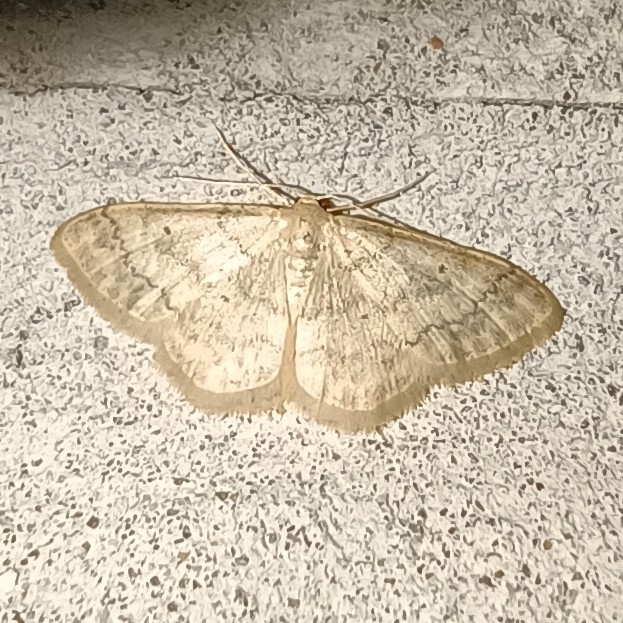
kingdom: Animalia
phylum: Arthropoda
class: Insecta
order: Lepidoptera
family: Geometridae
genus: Idaea
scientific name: Idaea biselata
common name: Small fan-footed wave
